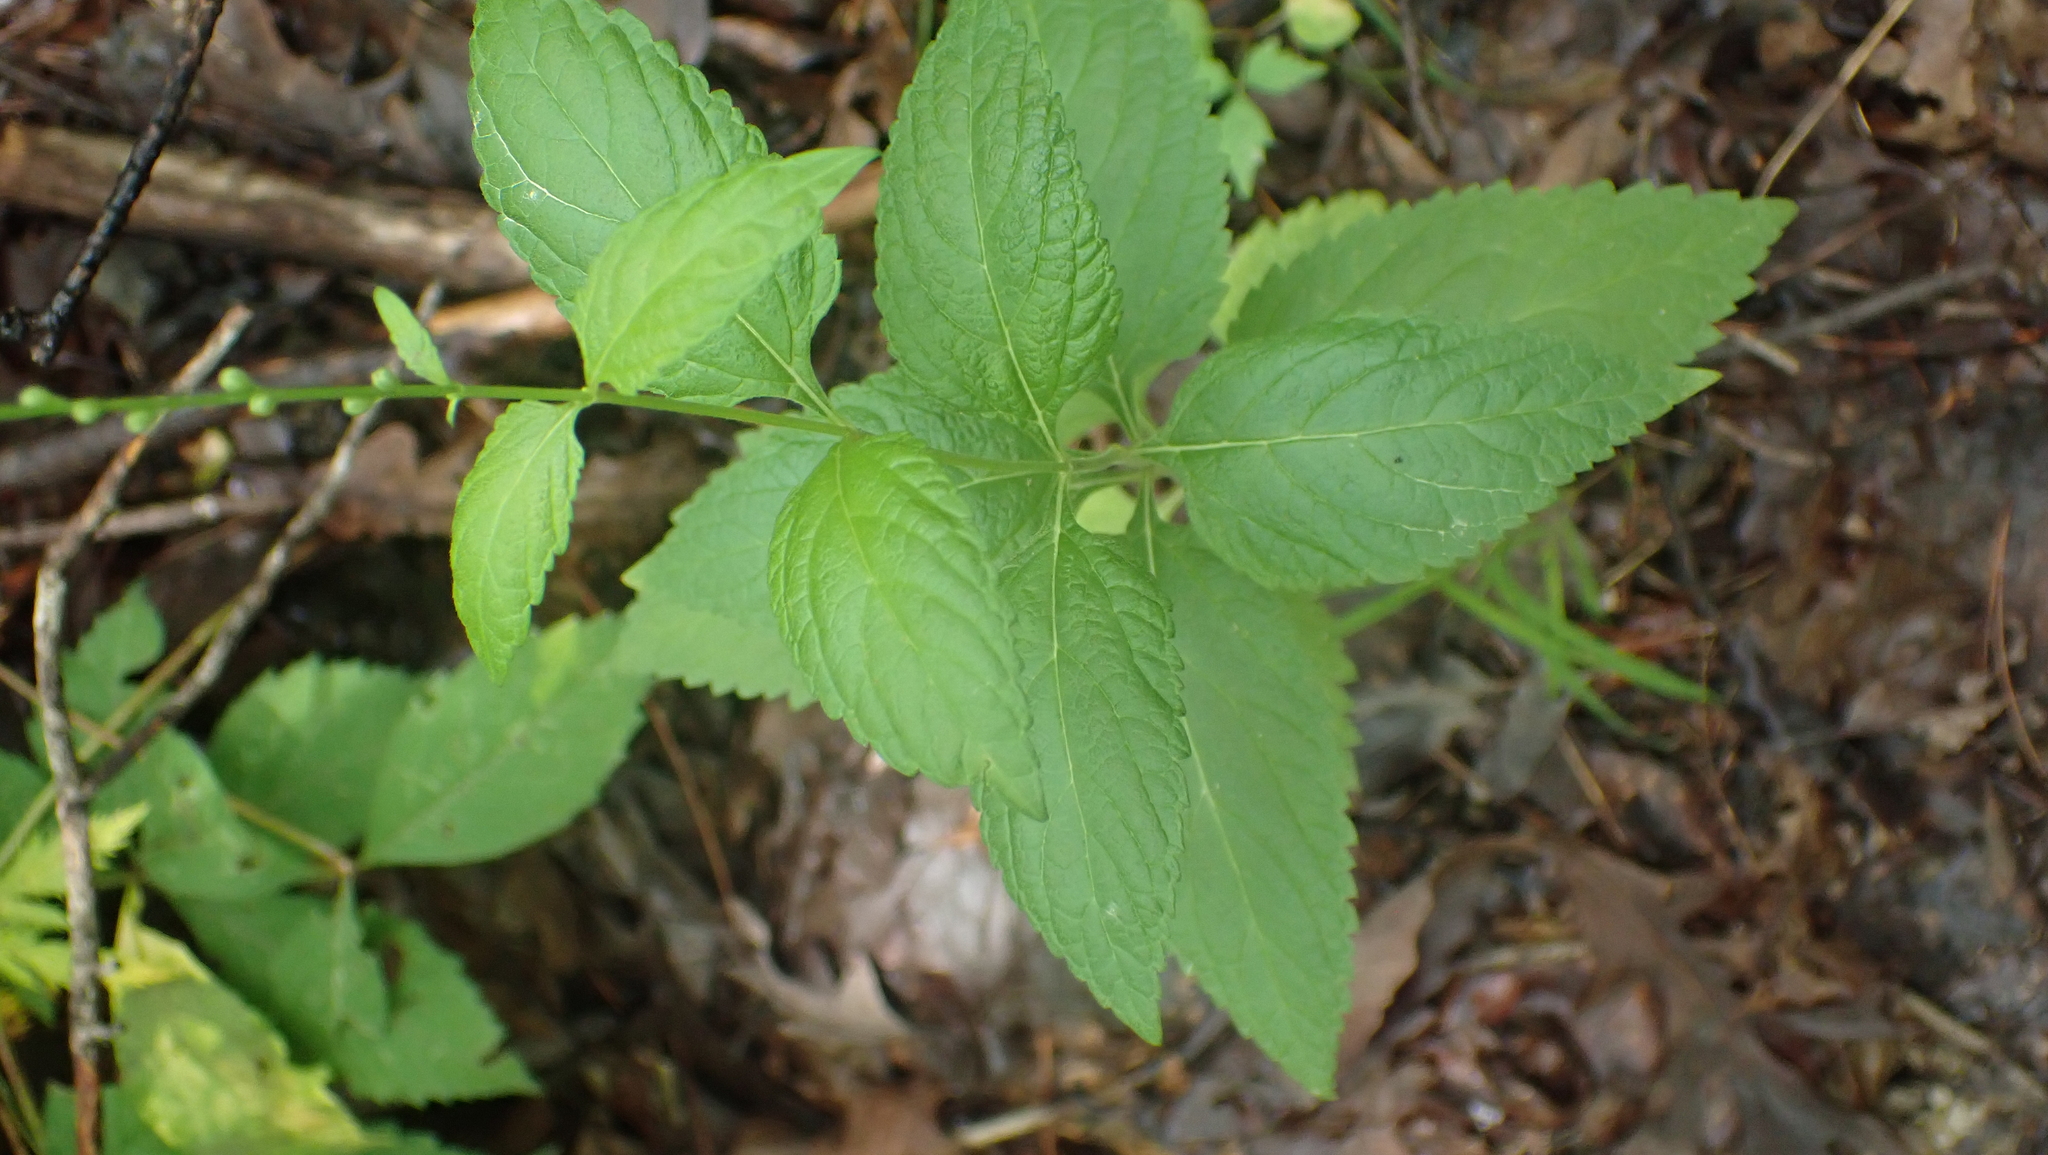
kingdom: Plantae
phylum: Tracheophyta
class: Magnoliopsida
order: Lamiales
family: Verbenaceae
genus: Verbena
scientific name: Verbena urticifolia
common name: Nettle-leaved vervain
